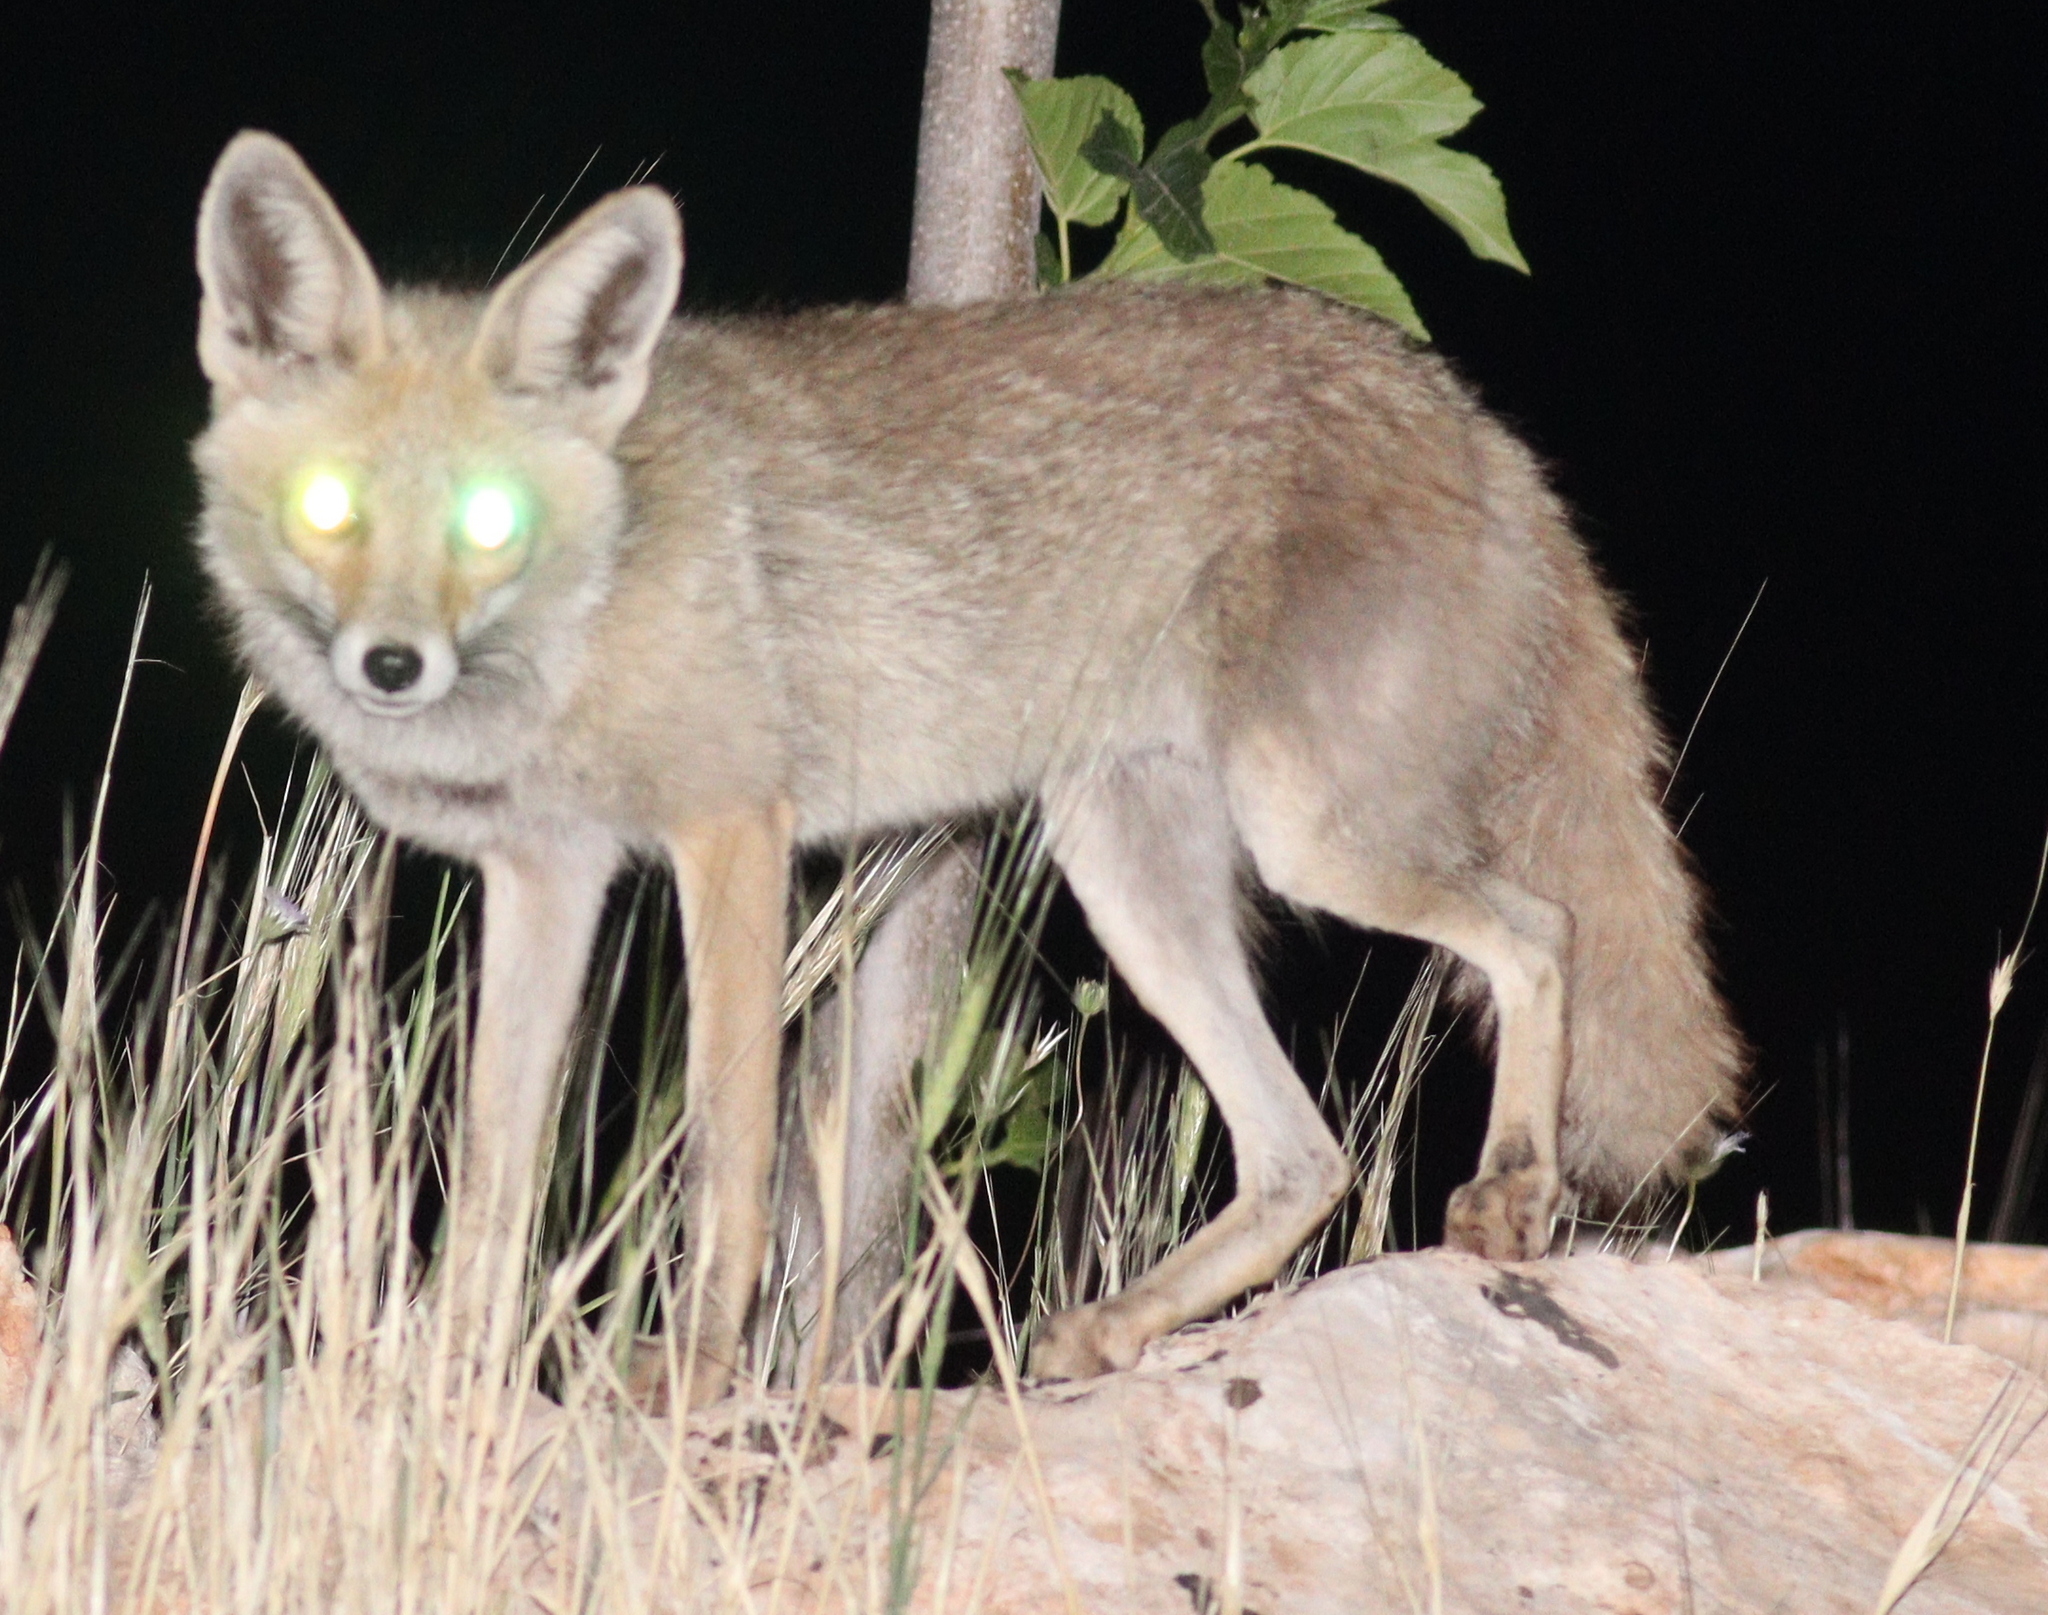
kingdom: Animalia
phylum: Chordata
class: Mammalia
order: Carnivora
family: Canidae
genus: Vulpes
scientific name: Vulpes vulpes
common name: Red fox
